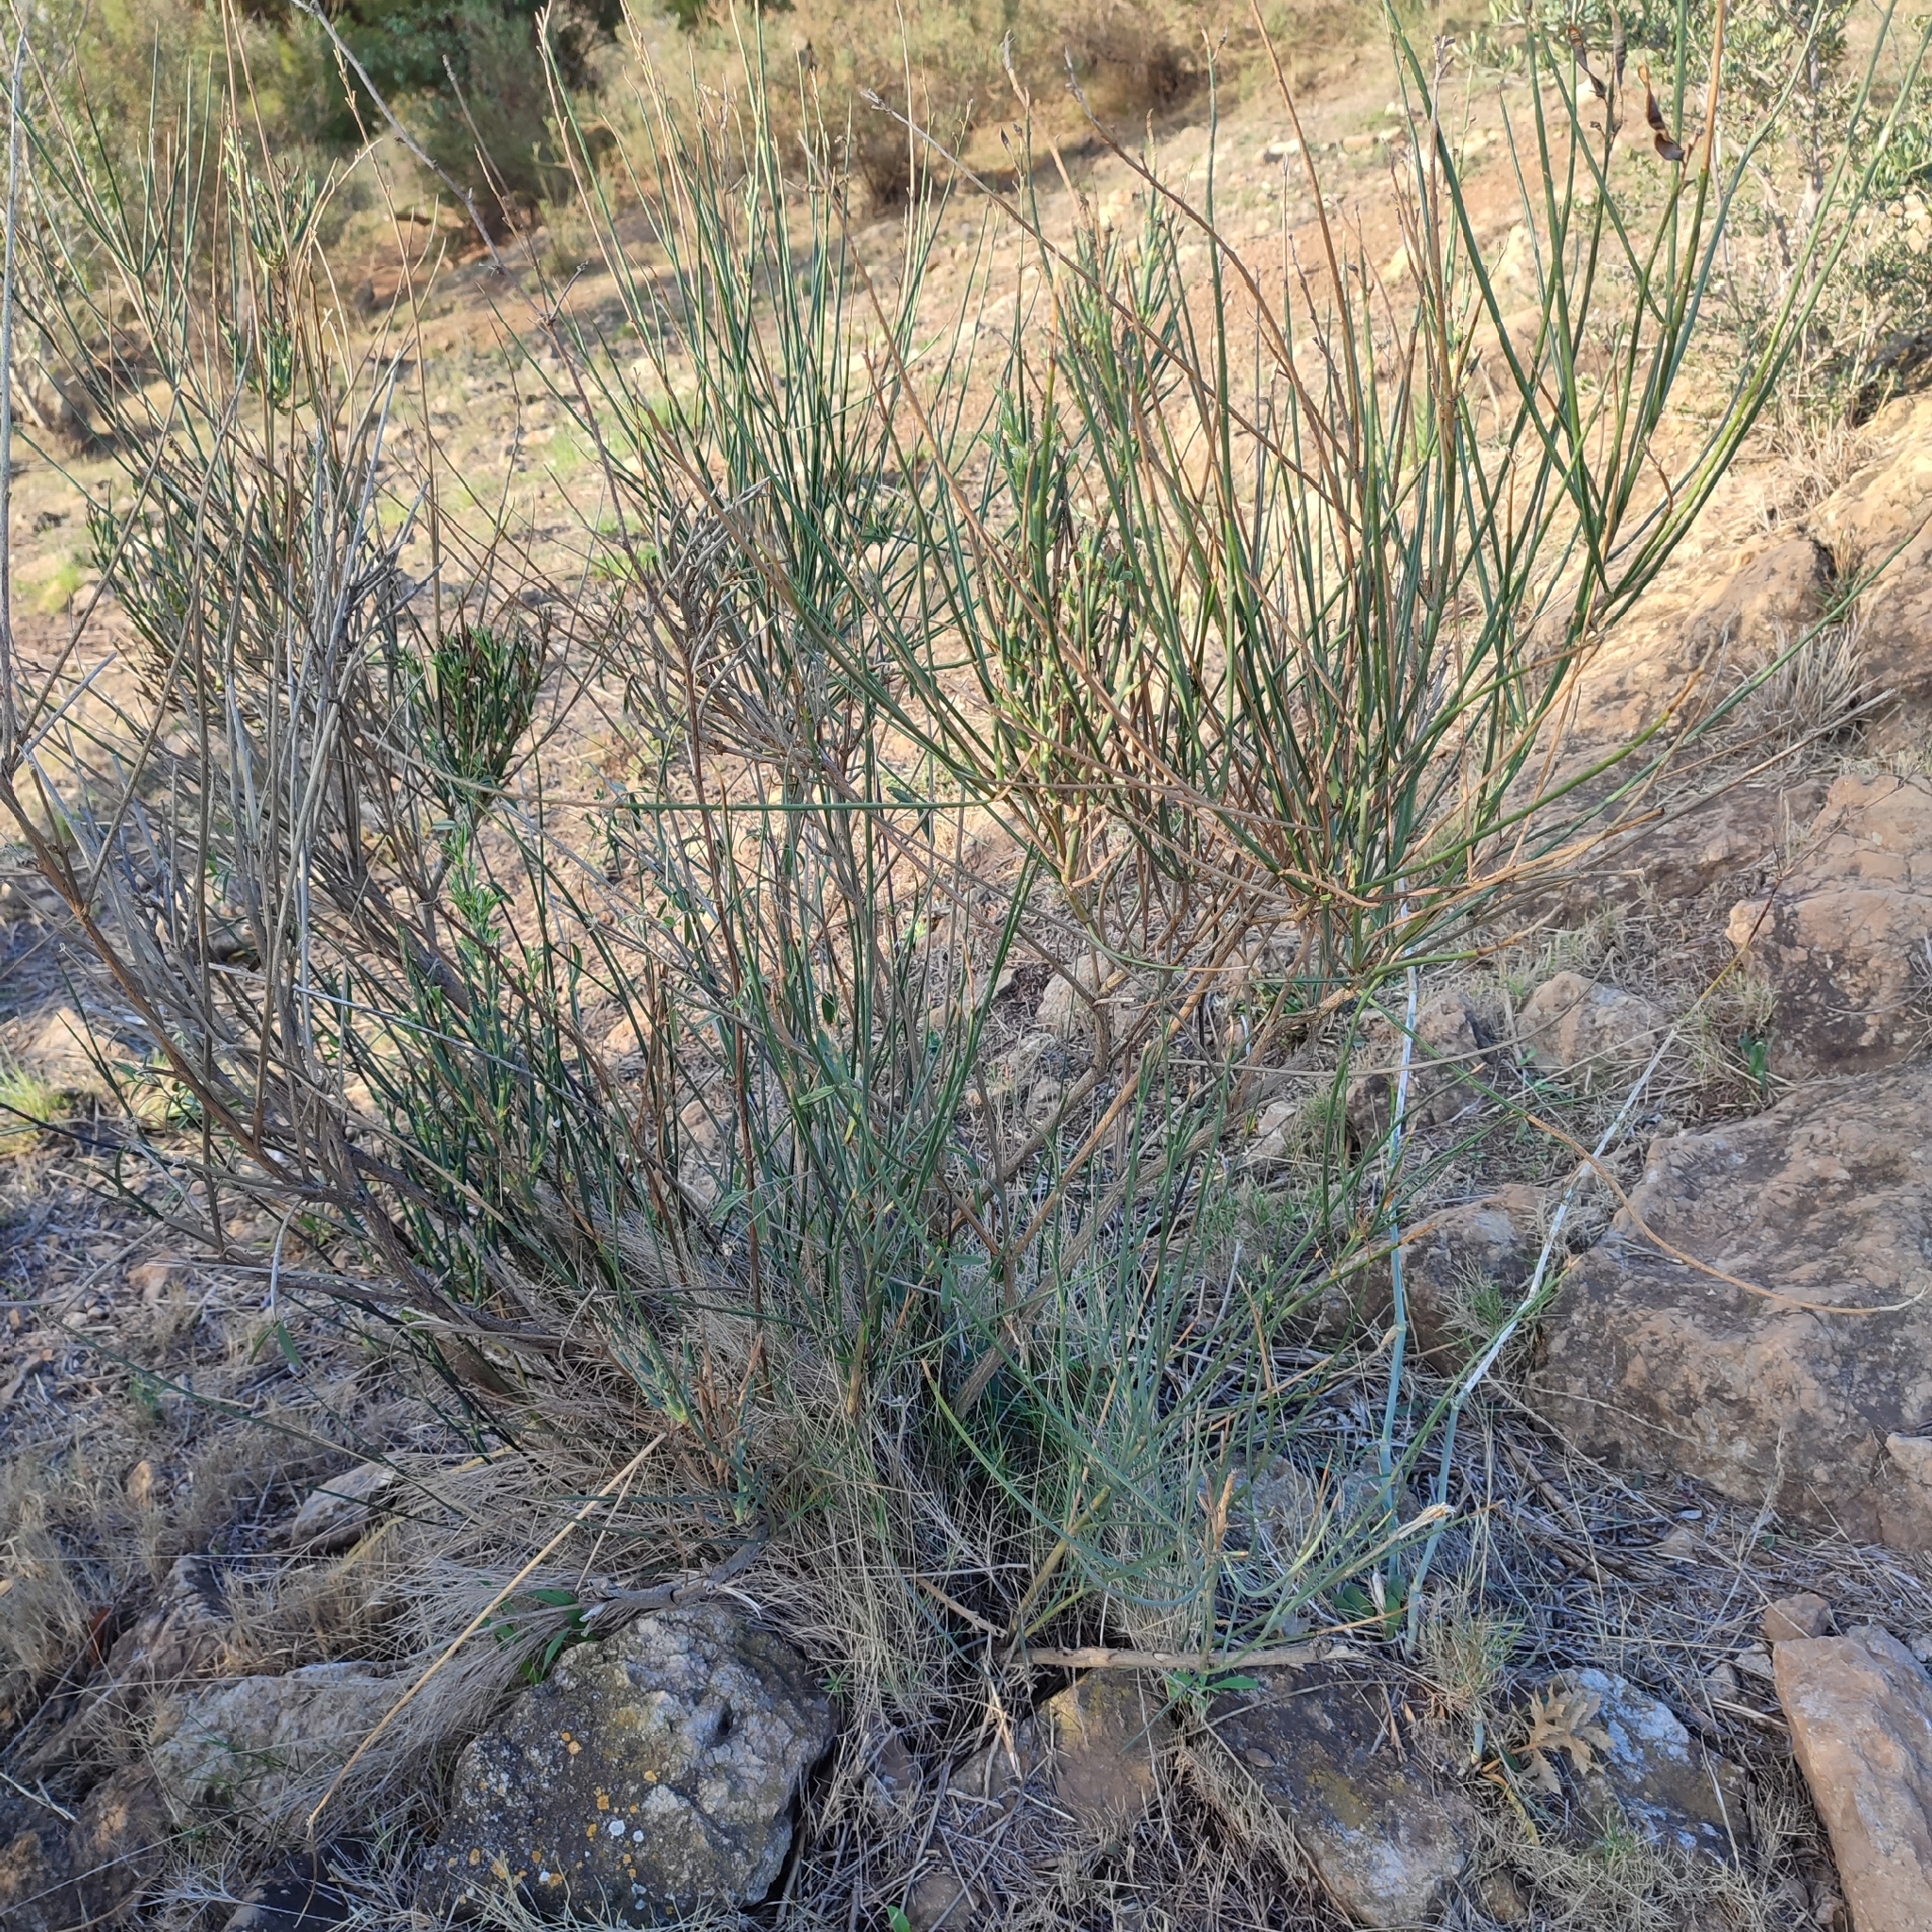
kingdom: Plantae
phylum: Tracheophyta
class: Magnoliopsida
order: Fabales
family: Fabaceae
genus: Spartium
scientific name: Spartium junceum
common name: Spanish broom
